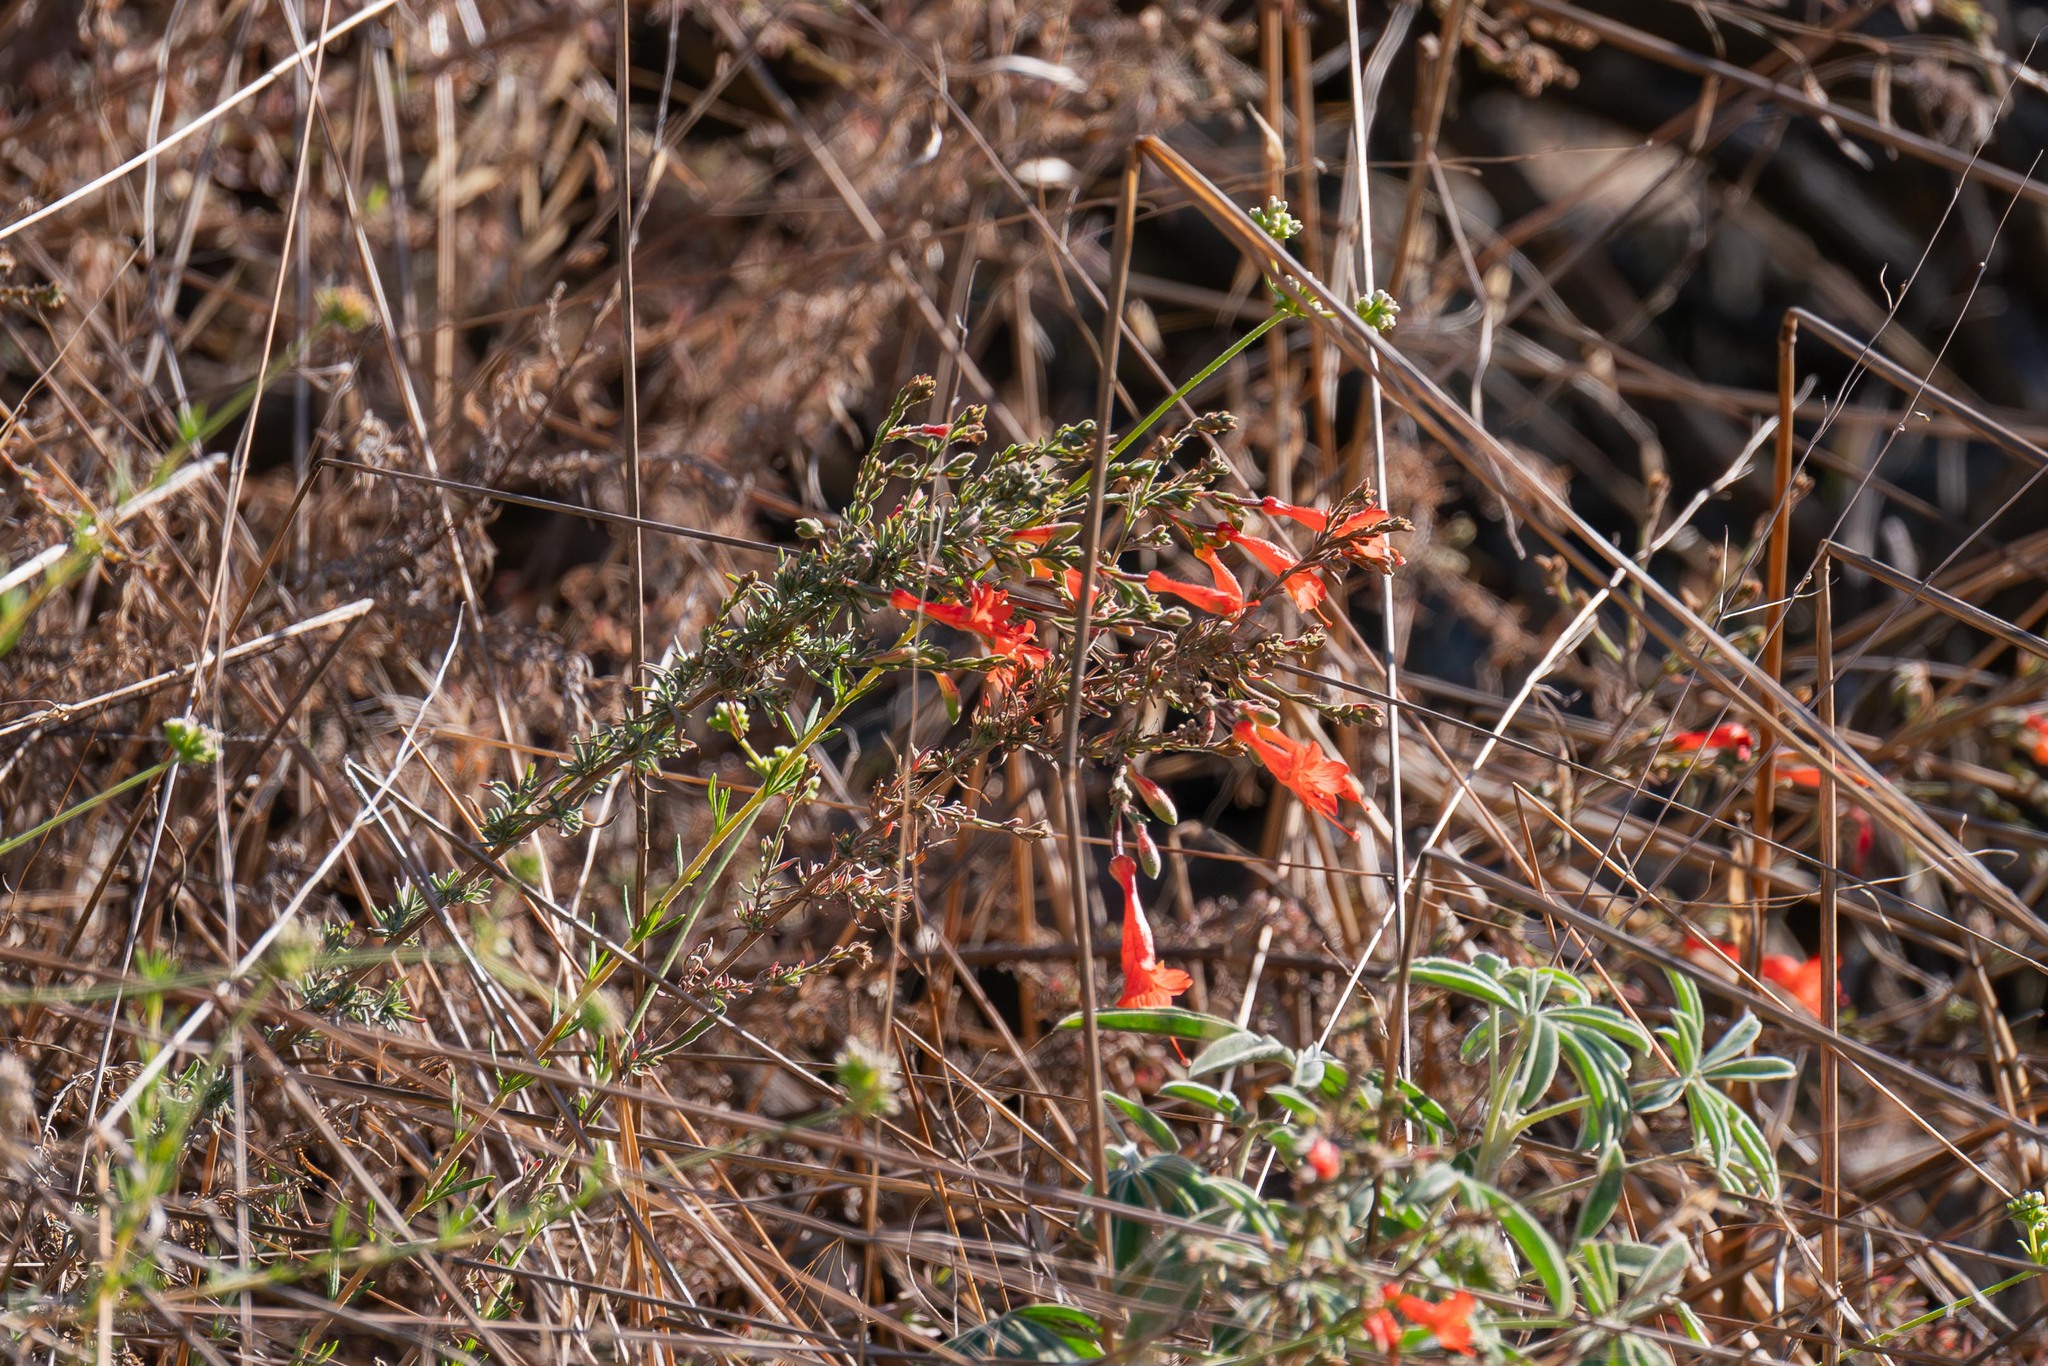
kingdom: Plantae
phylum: Tracheophyta
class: Magnoliopsida
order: Myrtales
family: Onagraceae
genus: Epilobium
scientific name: Epilobium canum
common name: California-fuchsia
